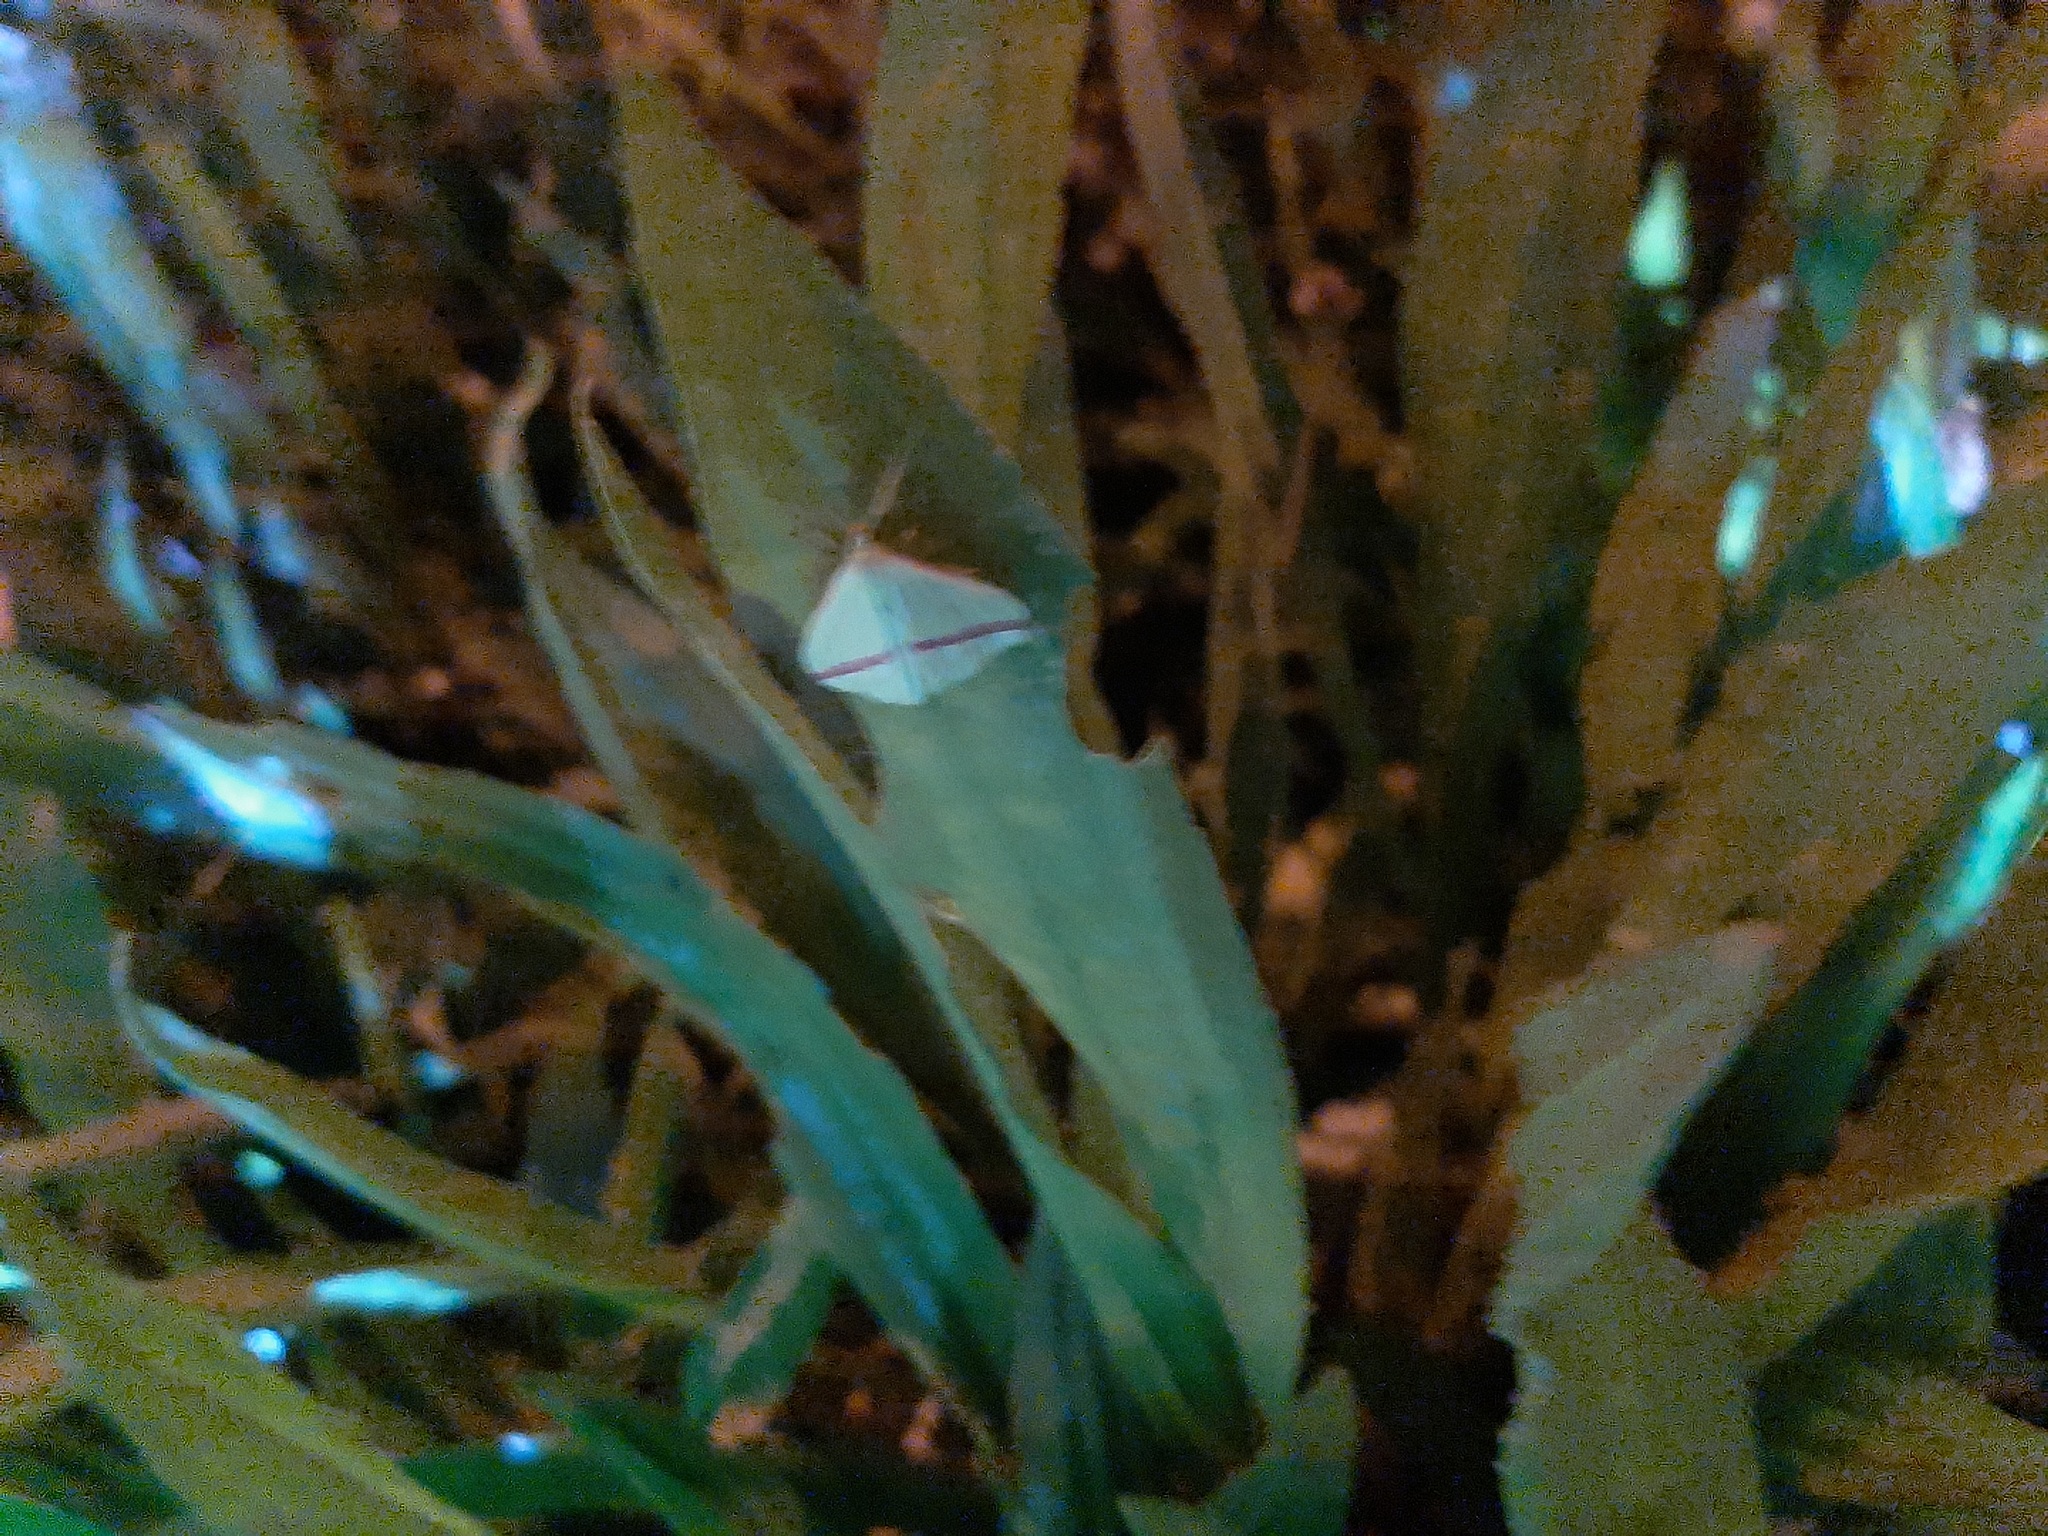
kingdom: Animalia
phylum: Arthropoda
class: Insecta
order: Lepidoptera
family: Geometridae
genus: Rhodometra
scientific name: Rhodometra sacraria
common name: Vestal
